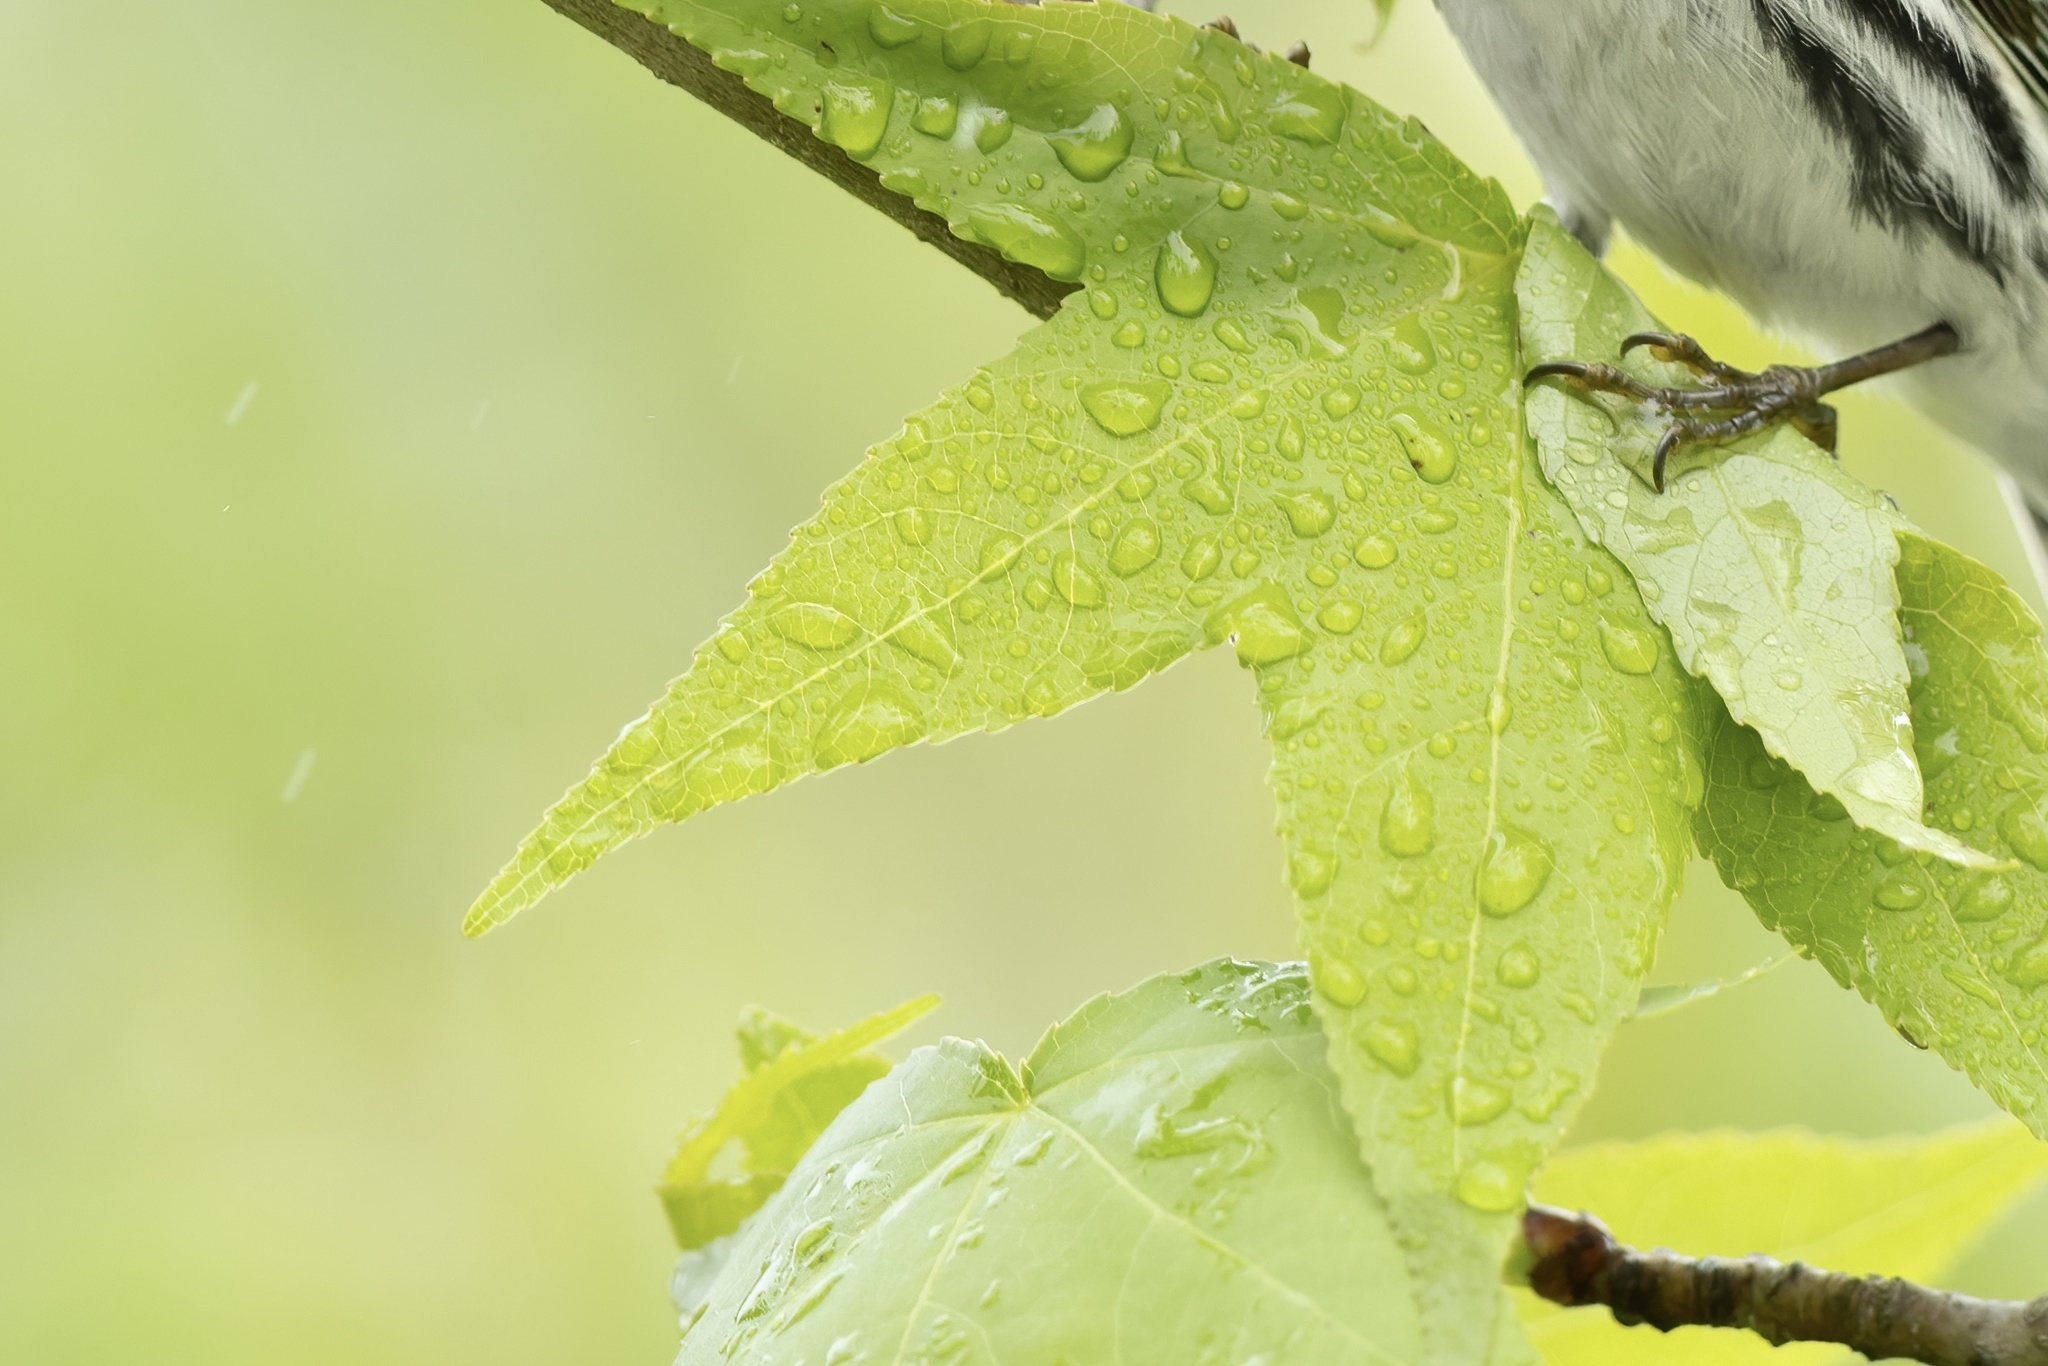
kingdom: Plantae
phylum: Tracheophyta
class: Magnoliopsida
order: Saxifragales
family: Altingiaceae
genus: Liquidambar
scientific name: Liquidambar styraciflua
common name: Sweet gum
